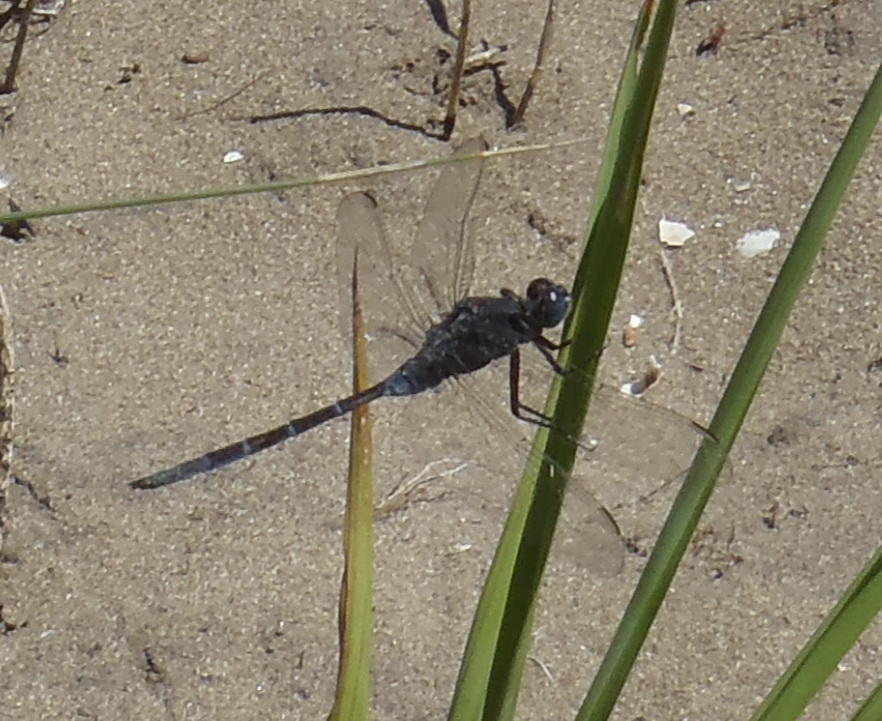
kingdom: Animalia
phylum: Arthropoda
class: Insecta
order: Odonata
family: Libellulidae
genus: Trithemis
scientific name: Trithemis furva
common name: Dark dropwing
